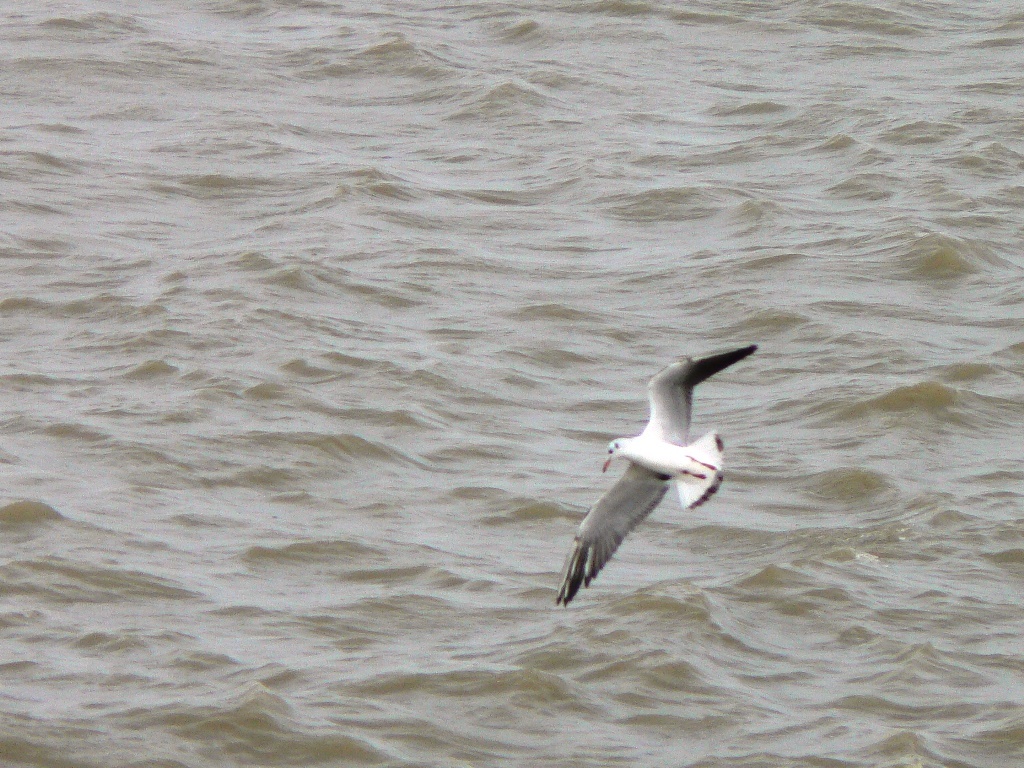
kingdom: Animalia
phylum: Chordata
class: Aves
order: Charadriiformes
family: Laridae
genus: Chroicocephalus
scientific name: Chroicocephalus ridibundus
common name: Black-headed gull
